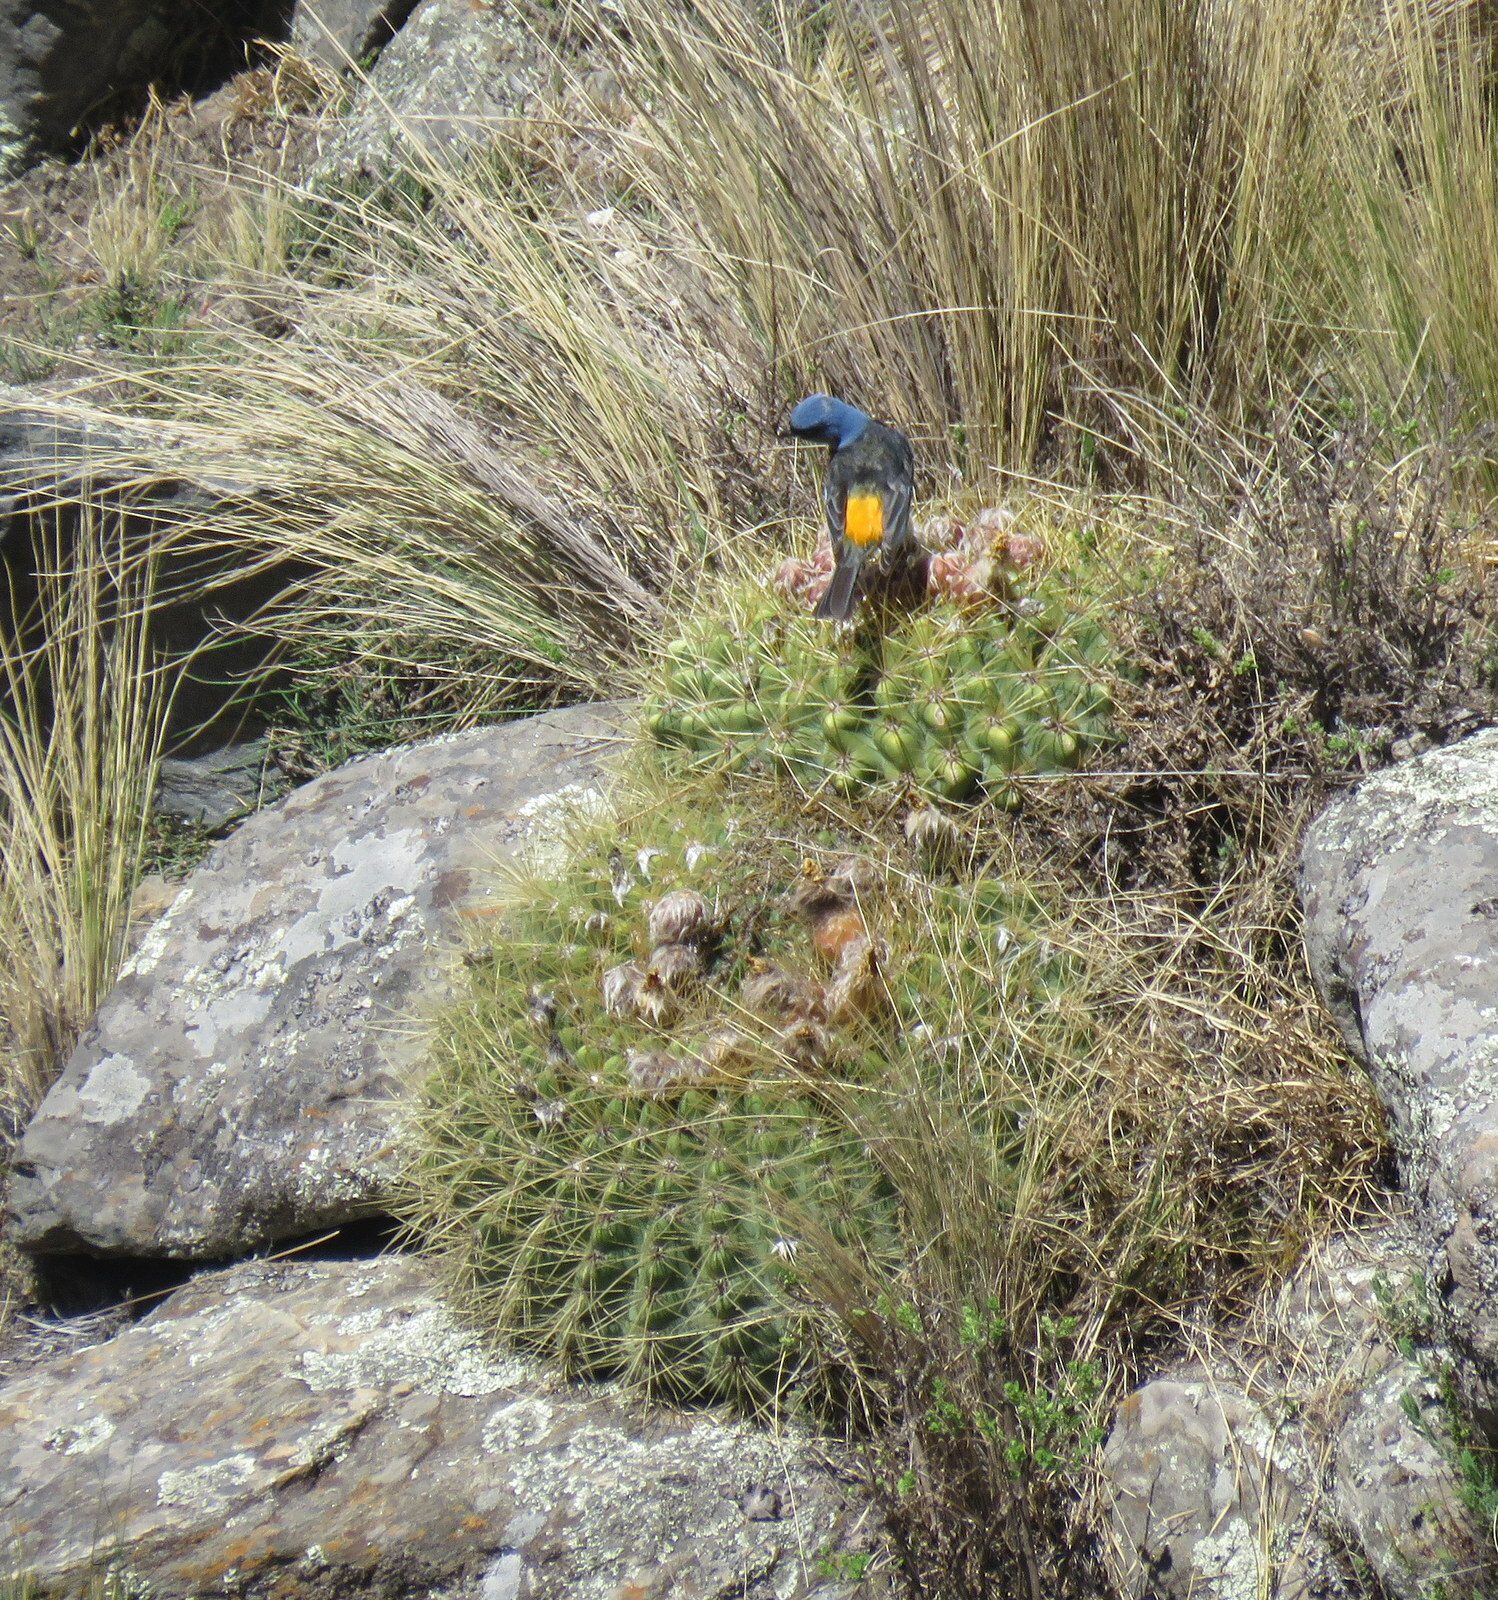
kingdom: Animalia
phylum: Chordata
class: Aves
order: Passeriformes
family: Thraupidae
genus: Rauenia
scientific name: Rauenia bonariensis
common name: Blue-and-yellow tanager
